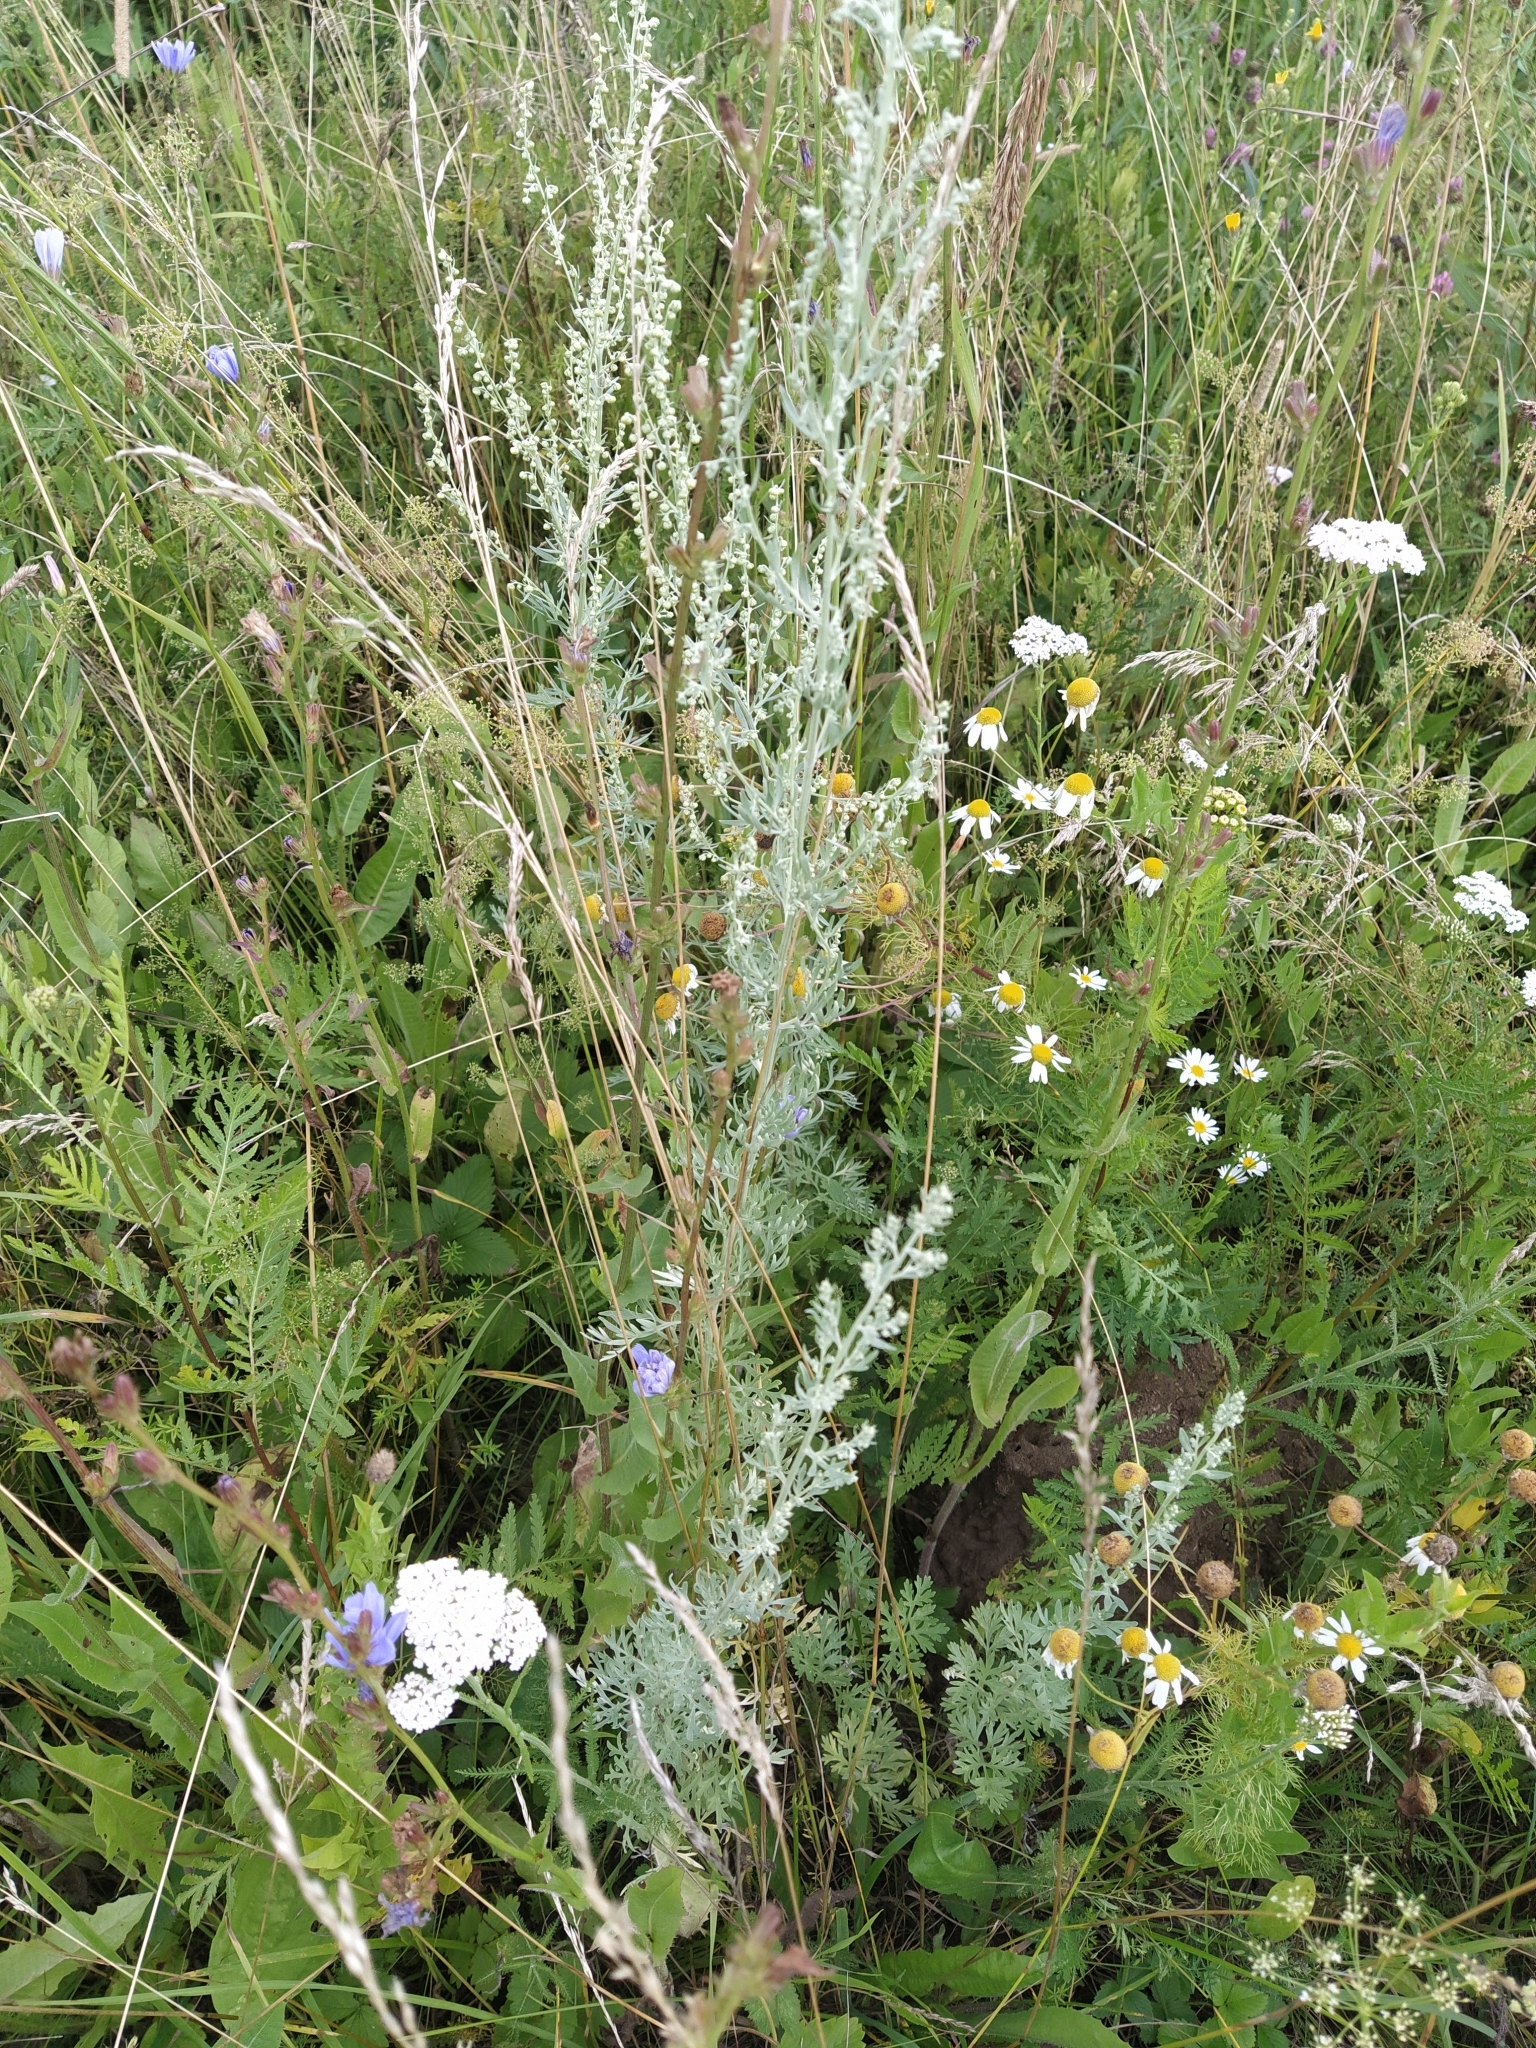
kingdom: Plantae
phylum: Tracheophyta
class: Magnoliopsida
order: Asterales
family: Asteraceae
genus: Artemisia
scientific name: Artemisia absinthium
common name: Wormwood
